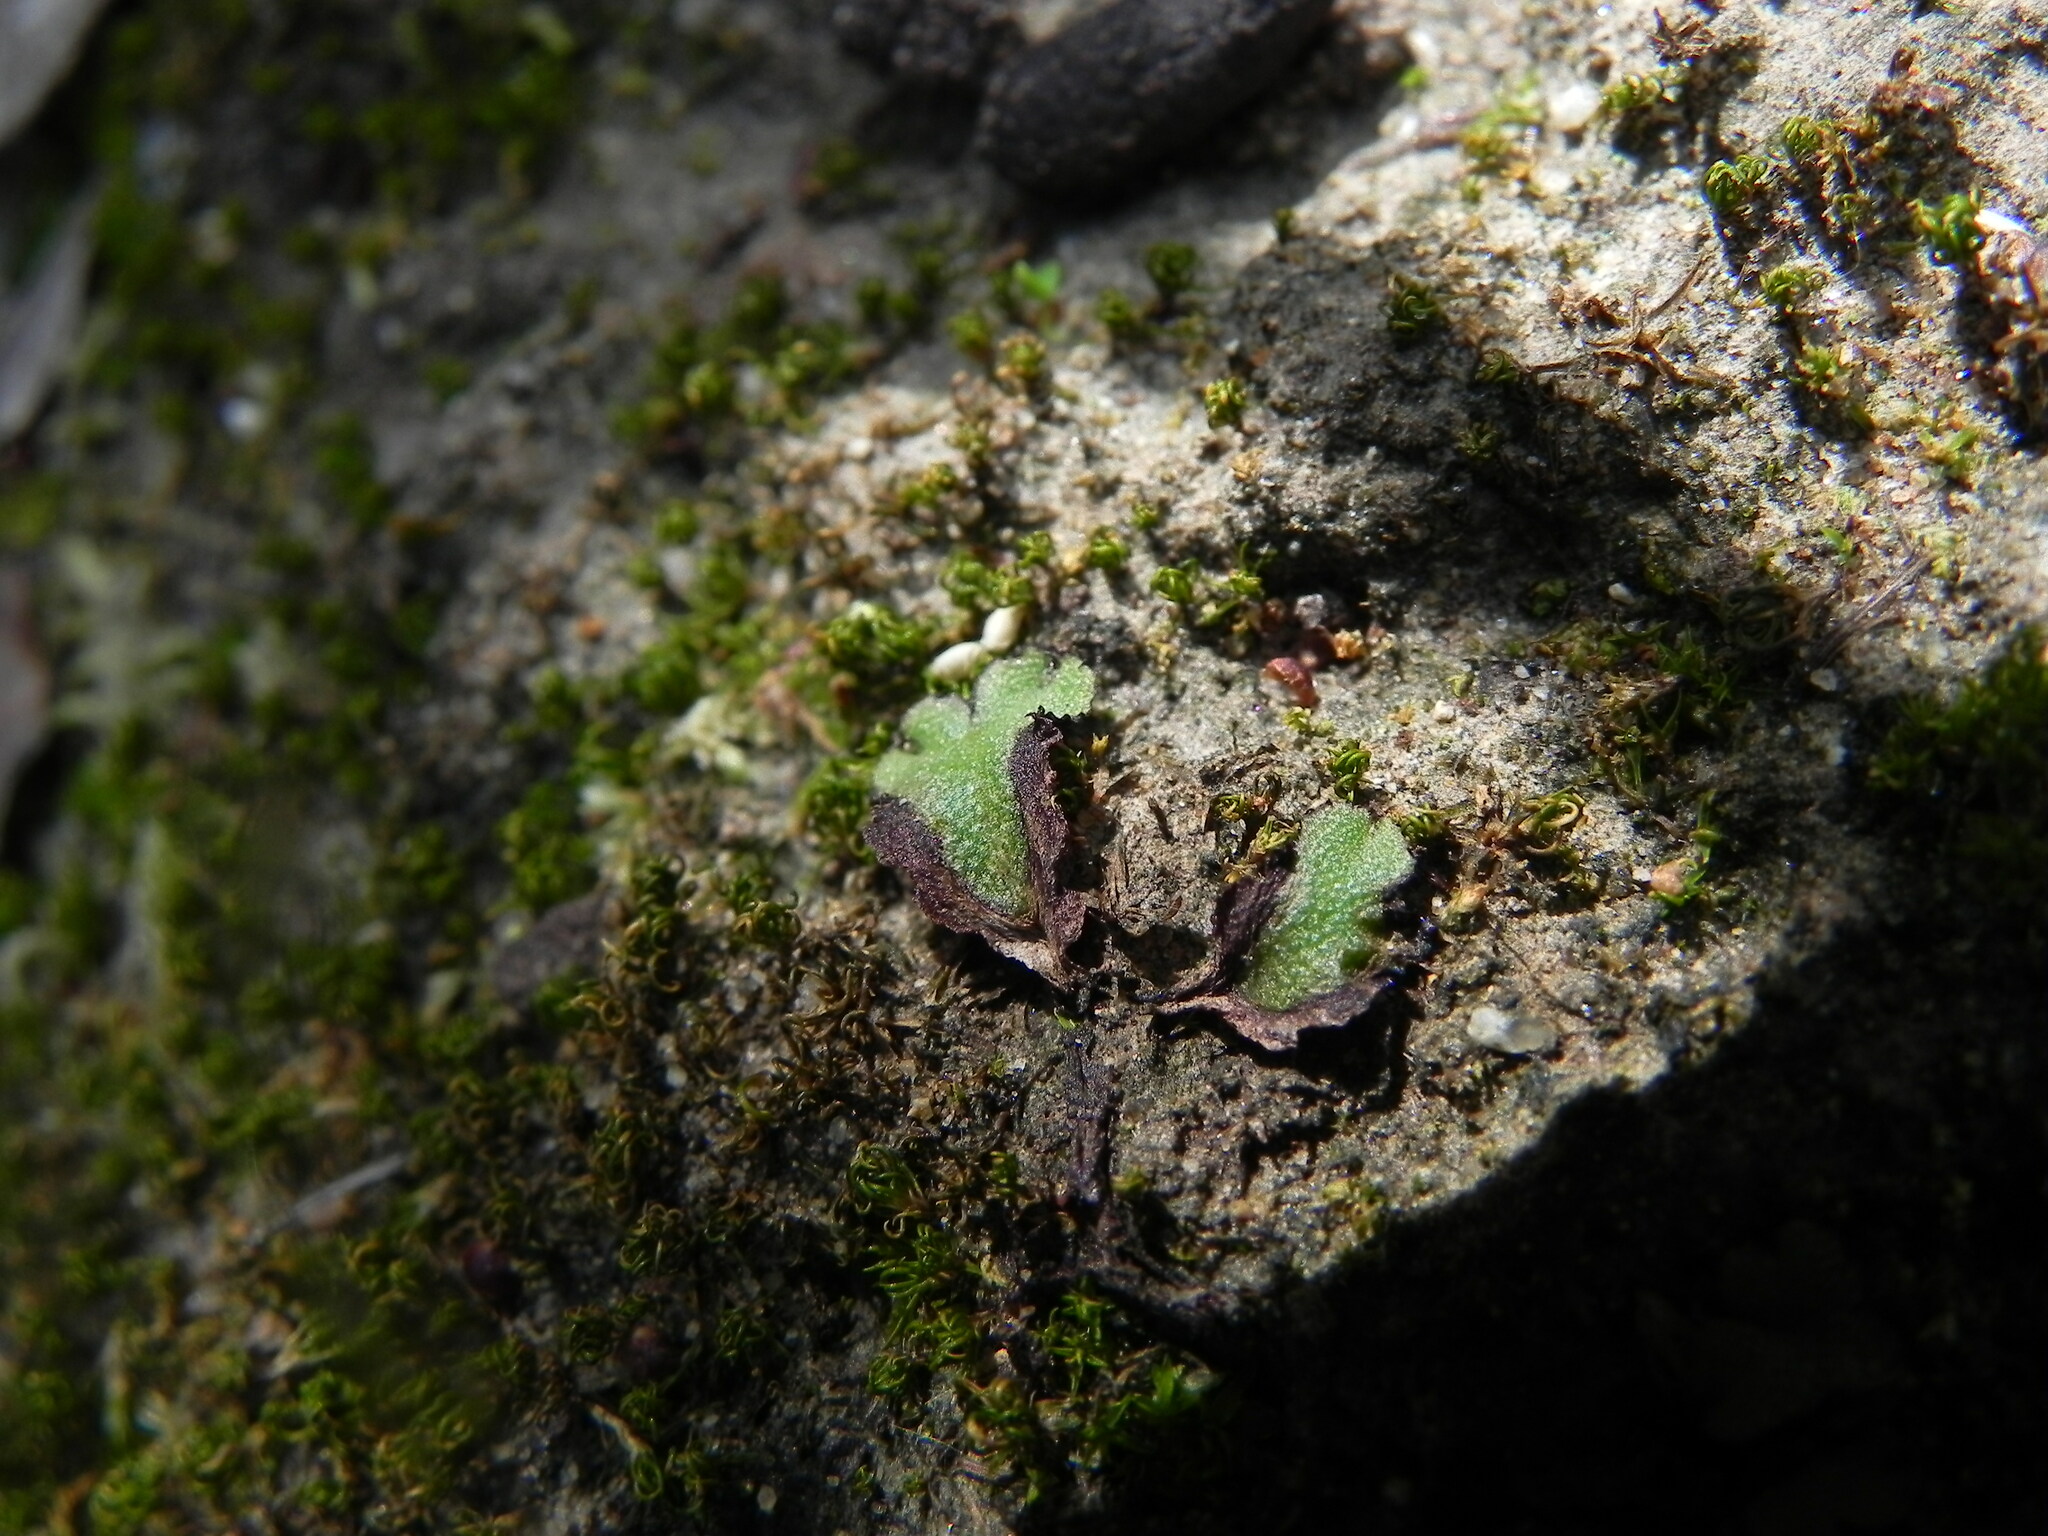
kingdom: Plantae
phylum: Marchantiophyta
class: Marchantiopsida
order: Marchantiales
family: Aytoniaceae
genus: Asterella
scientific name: Asterella californica
